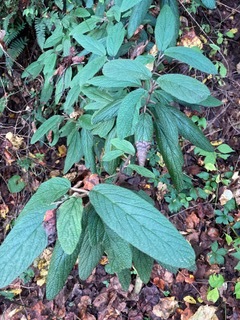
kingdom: Plantae
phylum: Tracheophyta
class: Magnoliopsida
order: Dipsacales
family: Viburnaceae
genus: Viburnum
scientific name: Viburnum rhytidophyllum
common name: Wrinkled viburnum
